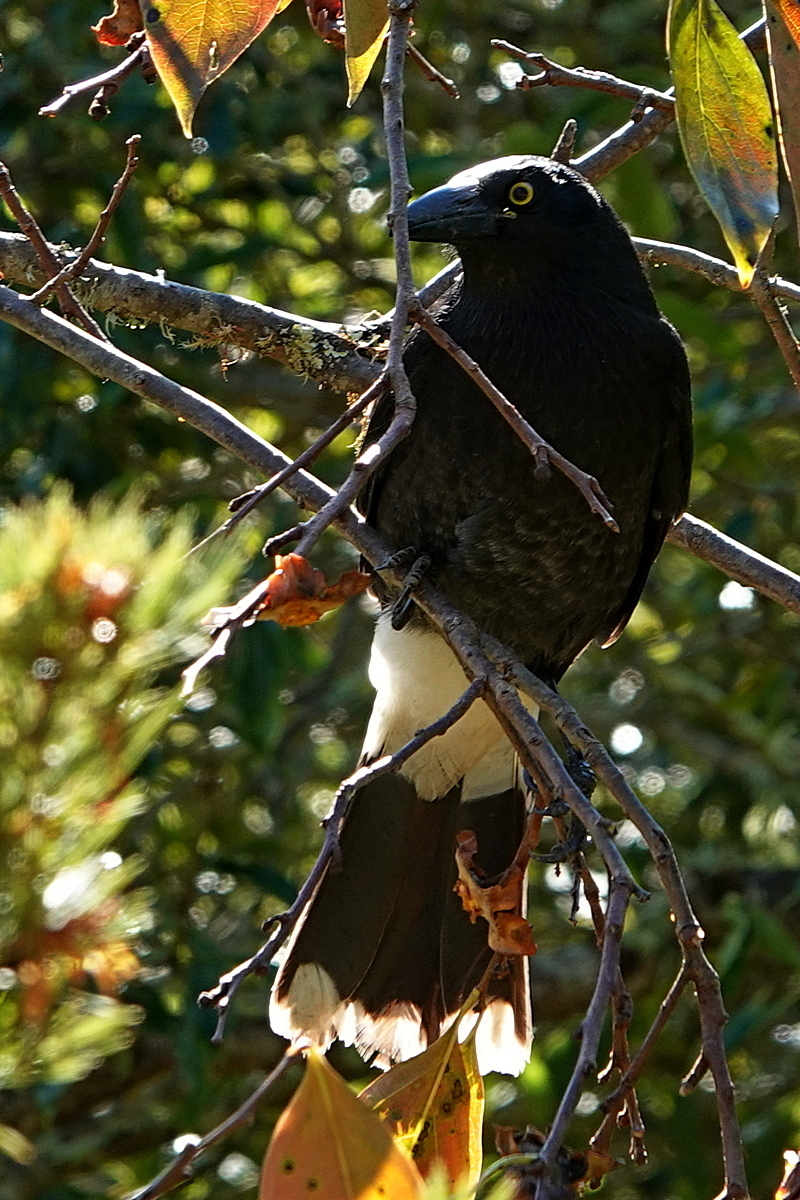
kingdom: Animalia
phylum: Chordata
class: Aves
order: Passeriformes
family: Cracticidae
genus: Strepera
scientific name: Strepera graculina
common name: Pied currawong
